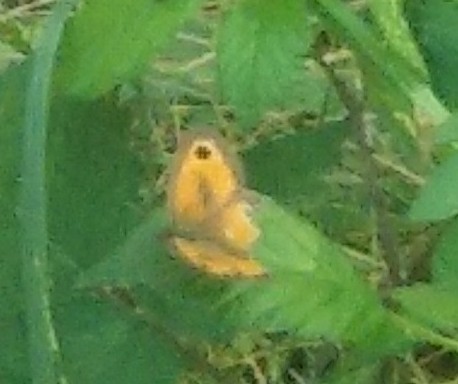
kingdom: Animalia
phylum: Arthropoda
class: Insecta
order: Lepidoptera
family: Nymphalidae
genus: Pyronia
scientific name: Pyronia tithonus
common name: Gatekeeper
